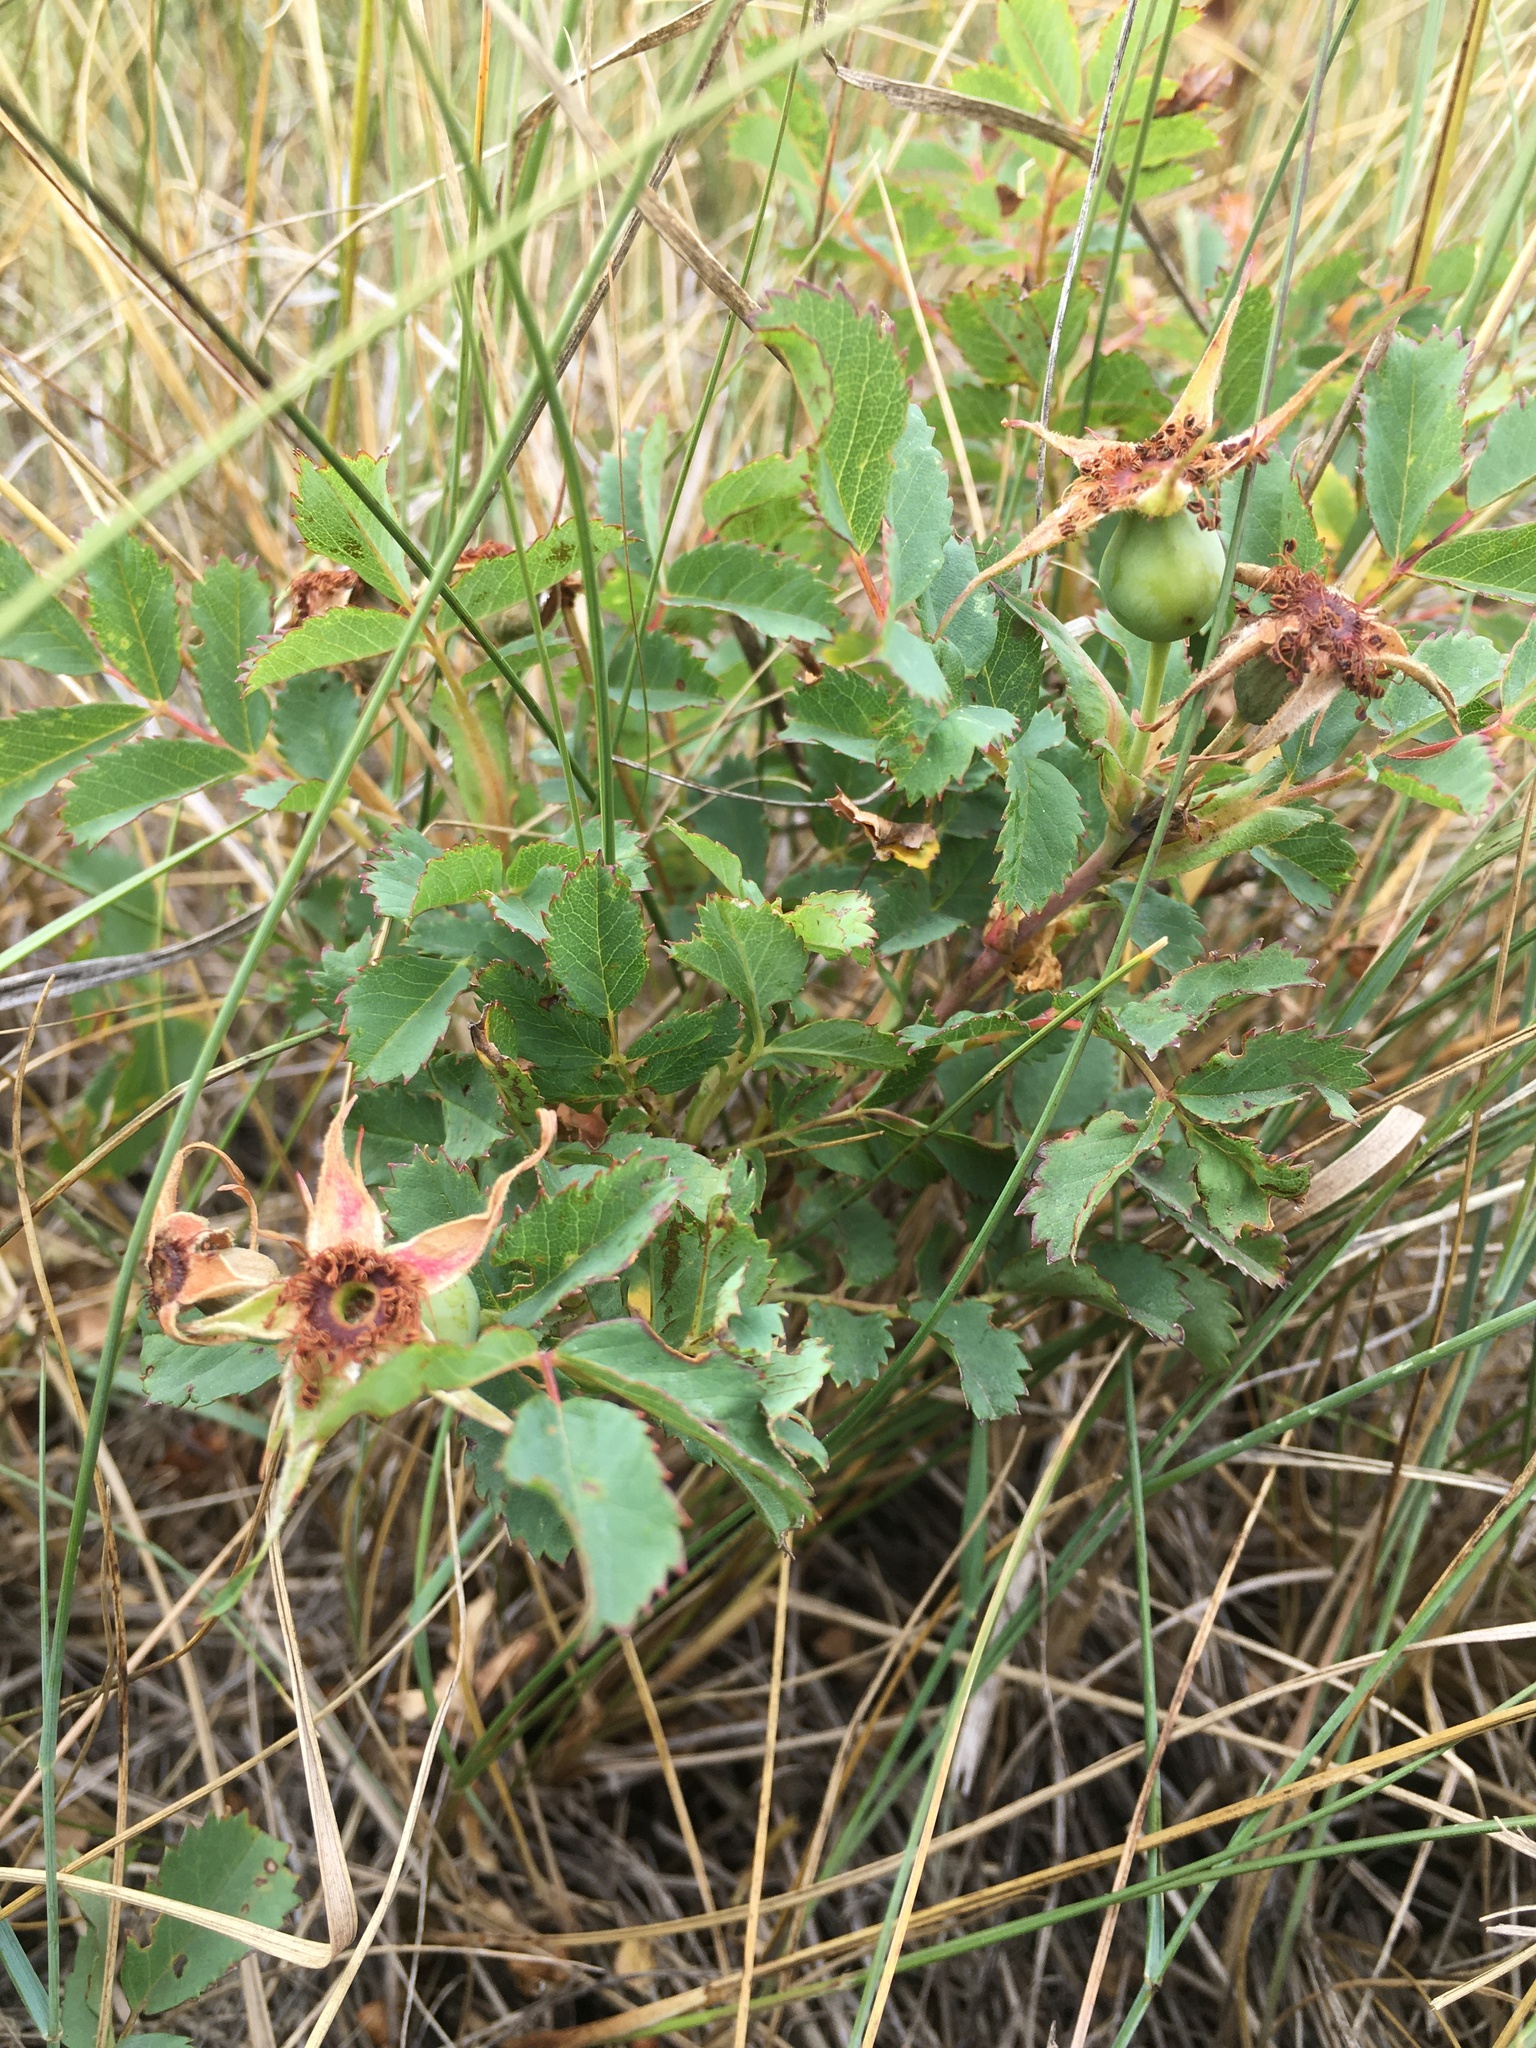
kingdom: Plantae
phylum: Tracheophyta
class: Magnoliopsida
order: Rosales
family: Rosaceae
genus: Rosa
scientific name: Rosa arkansana
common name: Prairie rose
